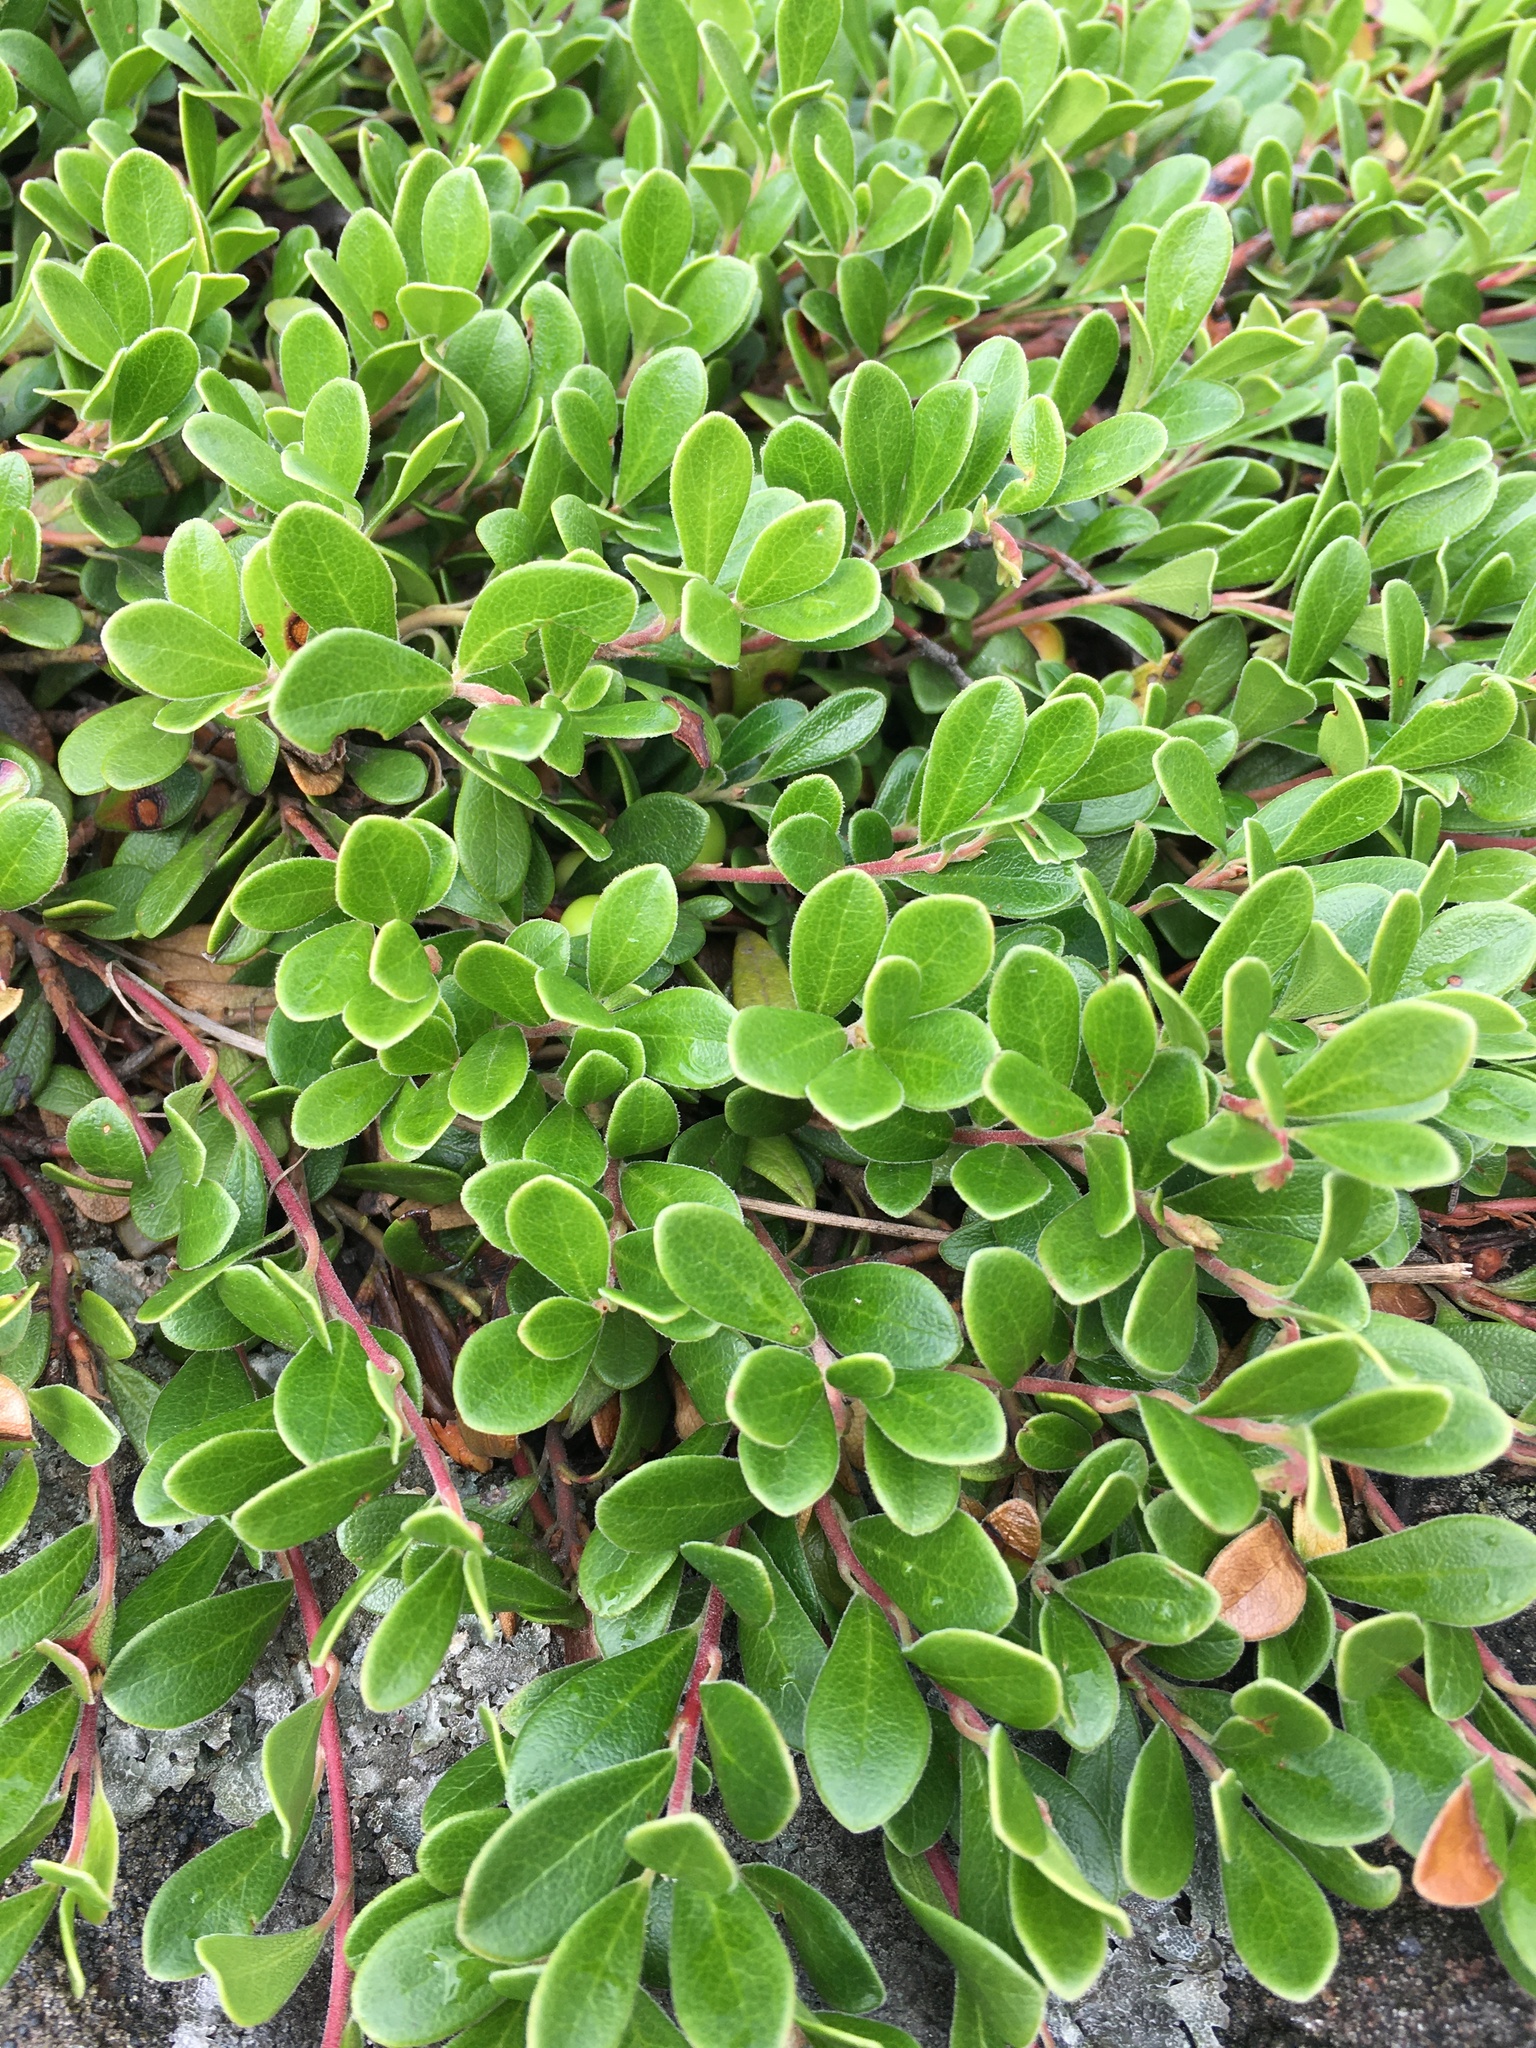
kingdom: Plantae
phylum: Tracheophyta
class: Magnoliopsida
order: Ericales
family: Ericaceae
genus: Arctostaphylos
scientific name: Arctostaphylos uva-ursi
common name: Bearberry
